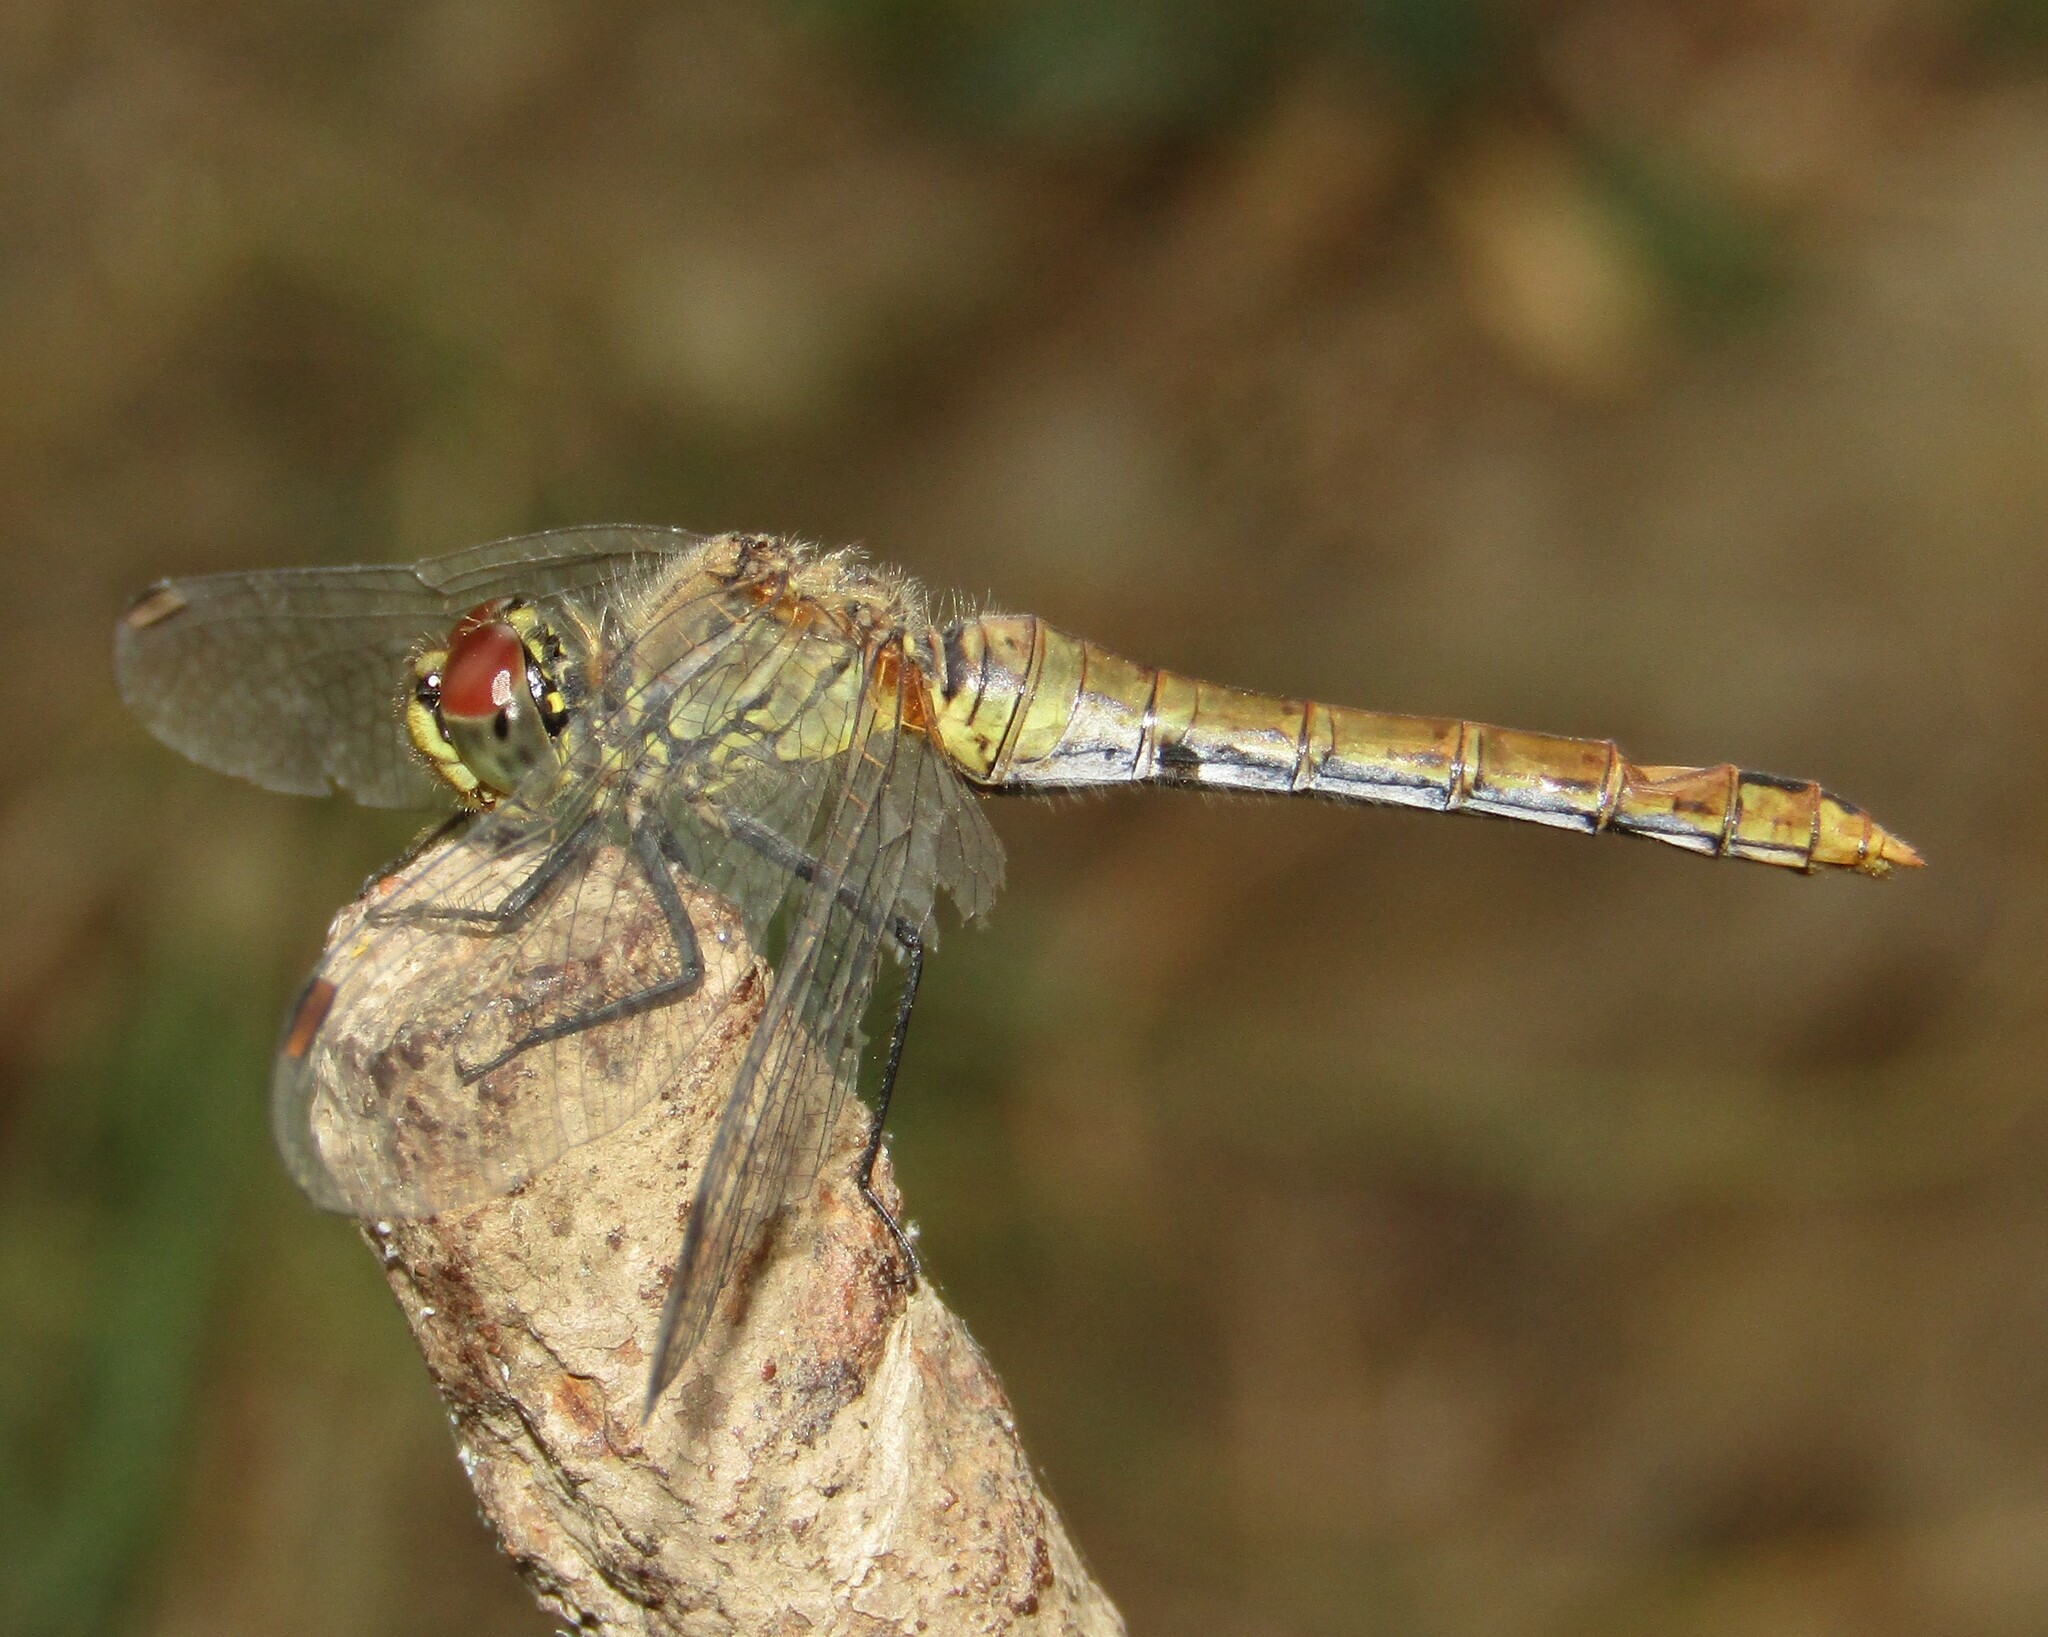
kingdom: Animalia
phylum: Arthropoda
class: Insecta
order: Odonata
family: Libellulidae
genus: Sympetrum
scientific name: Sympetrum sanguineum
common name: Ruddy darter
